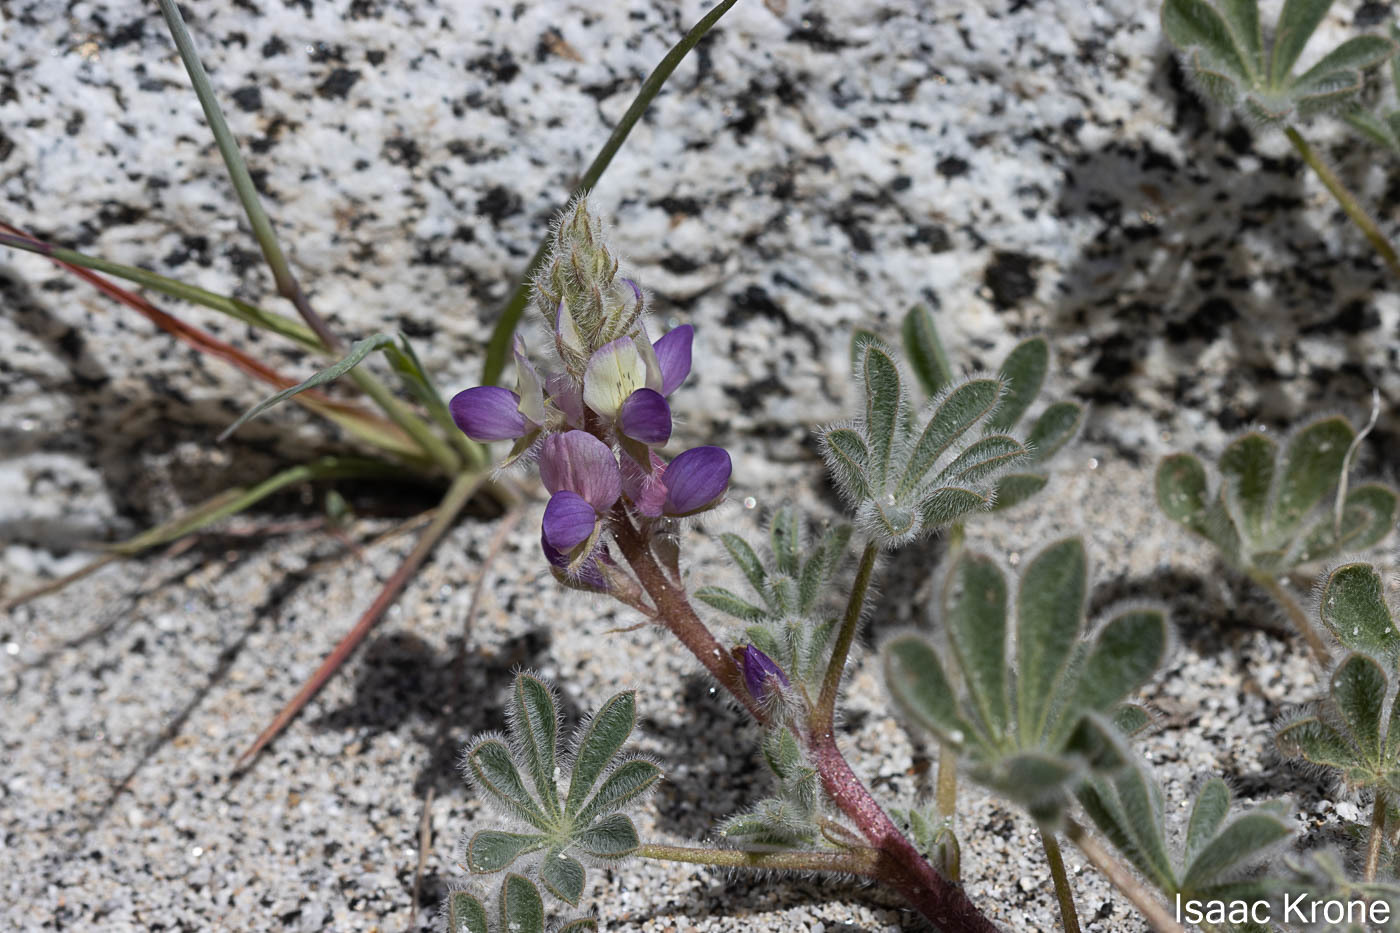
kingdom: Plantae
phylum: Tracheophyta
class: Magnoliopsida
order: Fabales
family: Fabaceae
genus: Lupinus
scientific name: Lupinus concinnus
